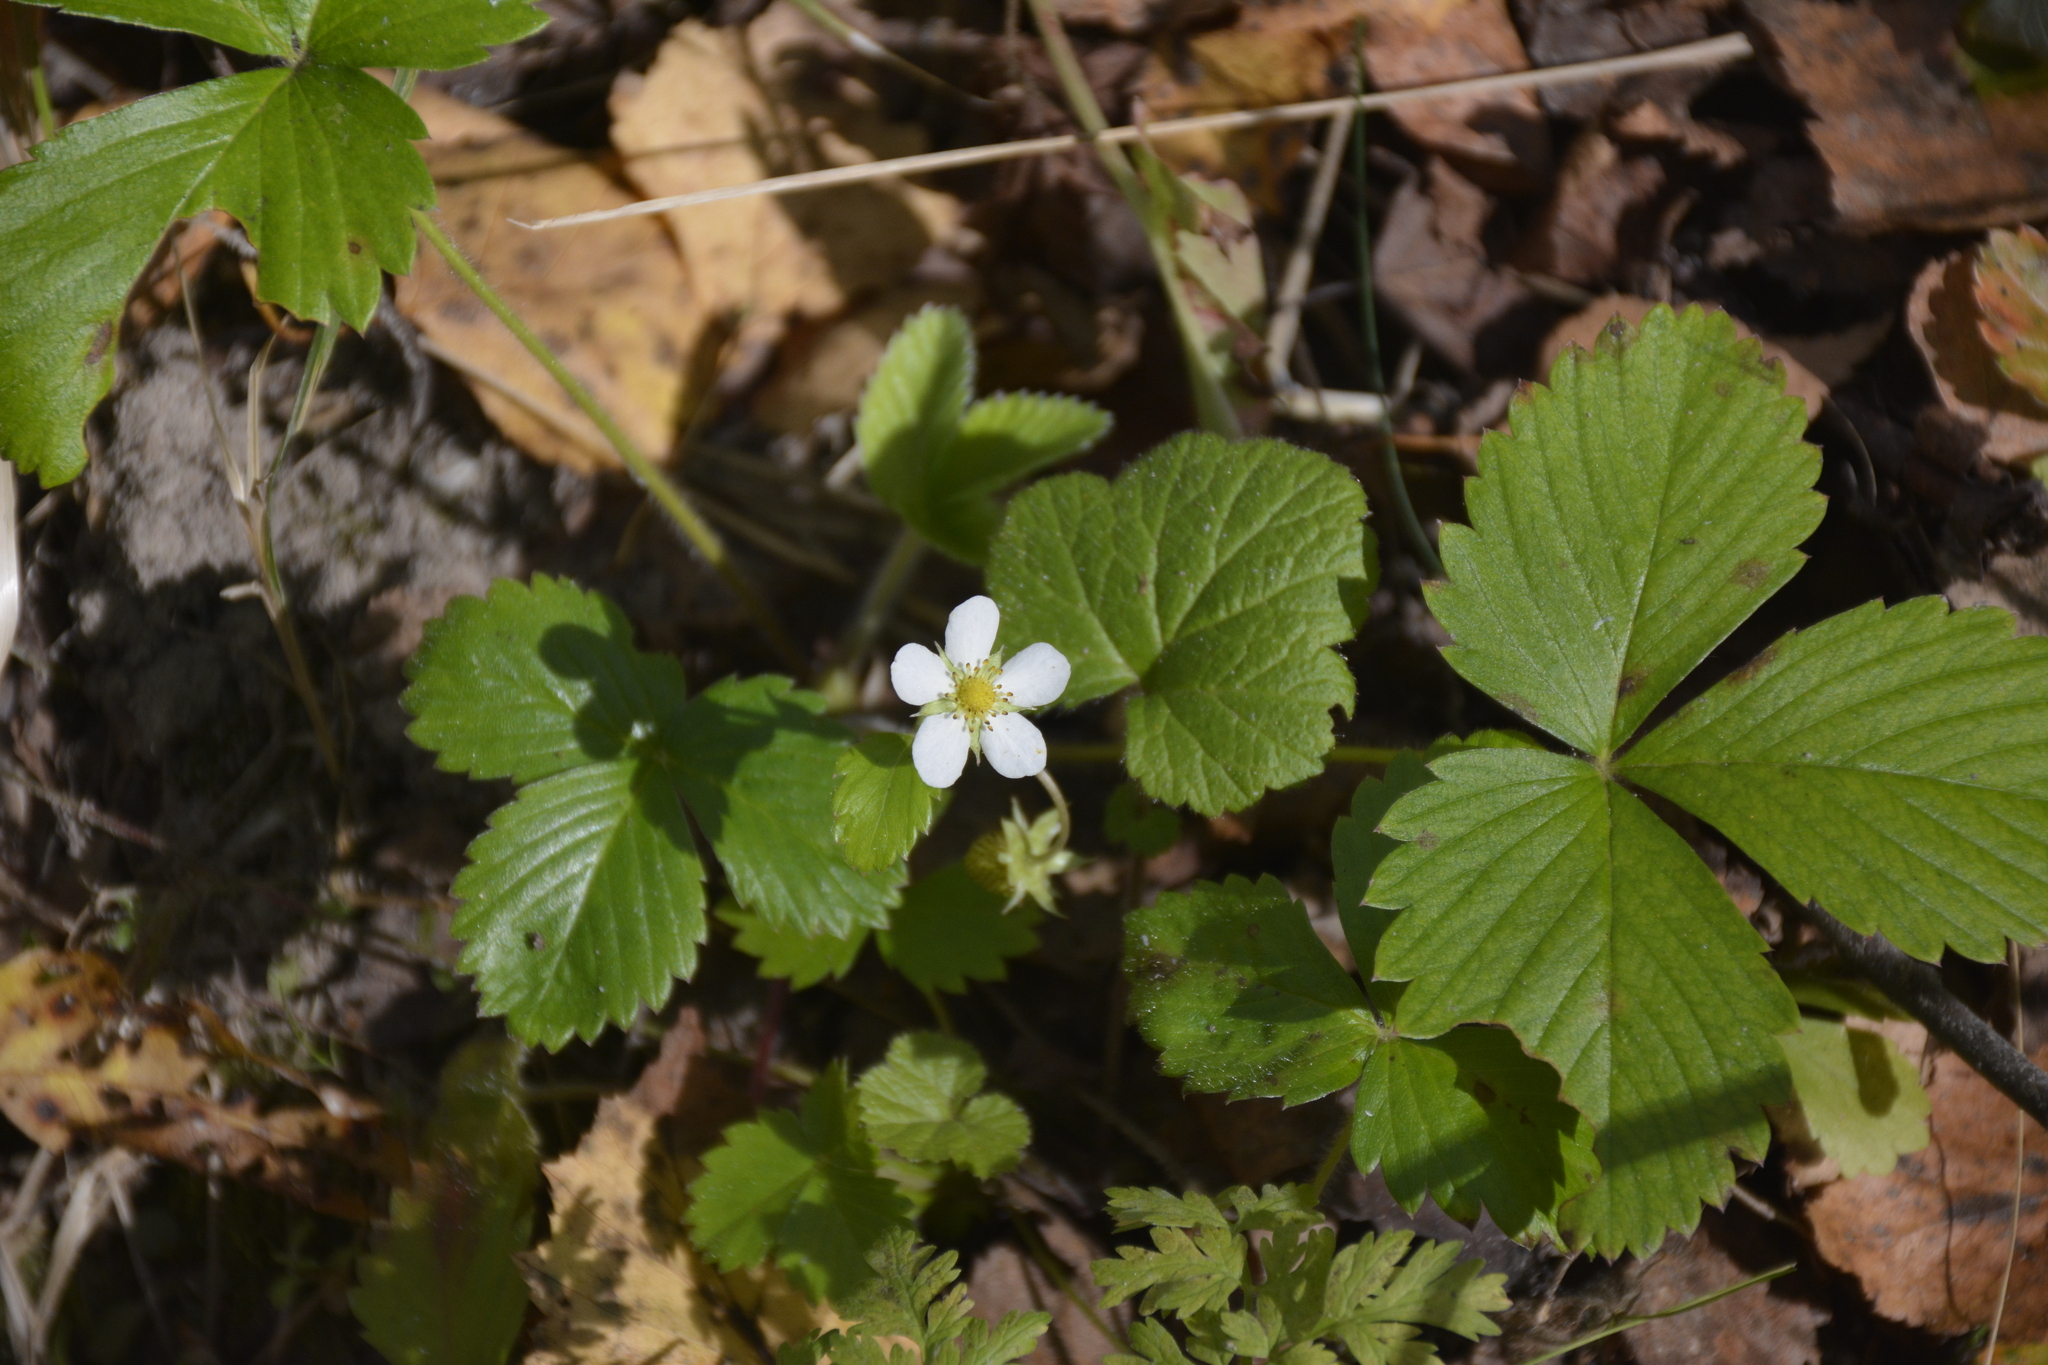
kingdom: Plantae
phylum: Tracheophyta
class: Magnoliopsida
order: Rosales
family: Rosaceae
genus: Fragaria
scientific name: Fragaria vesca
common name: Wild strawberry
